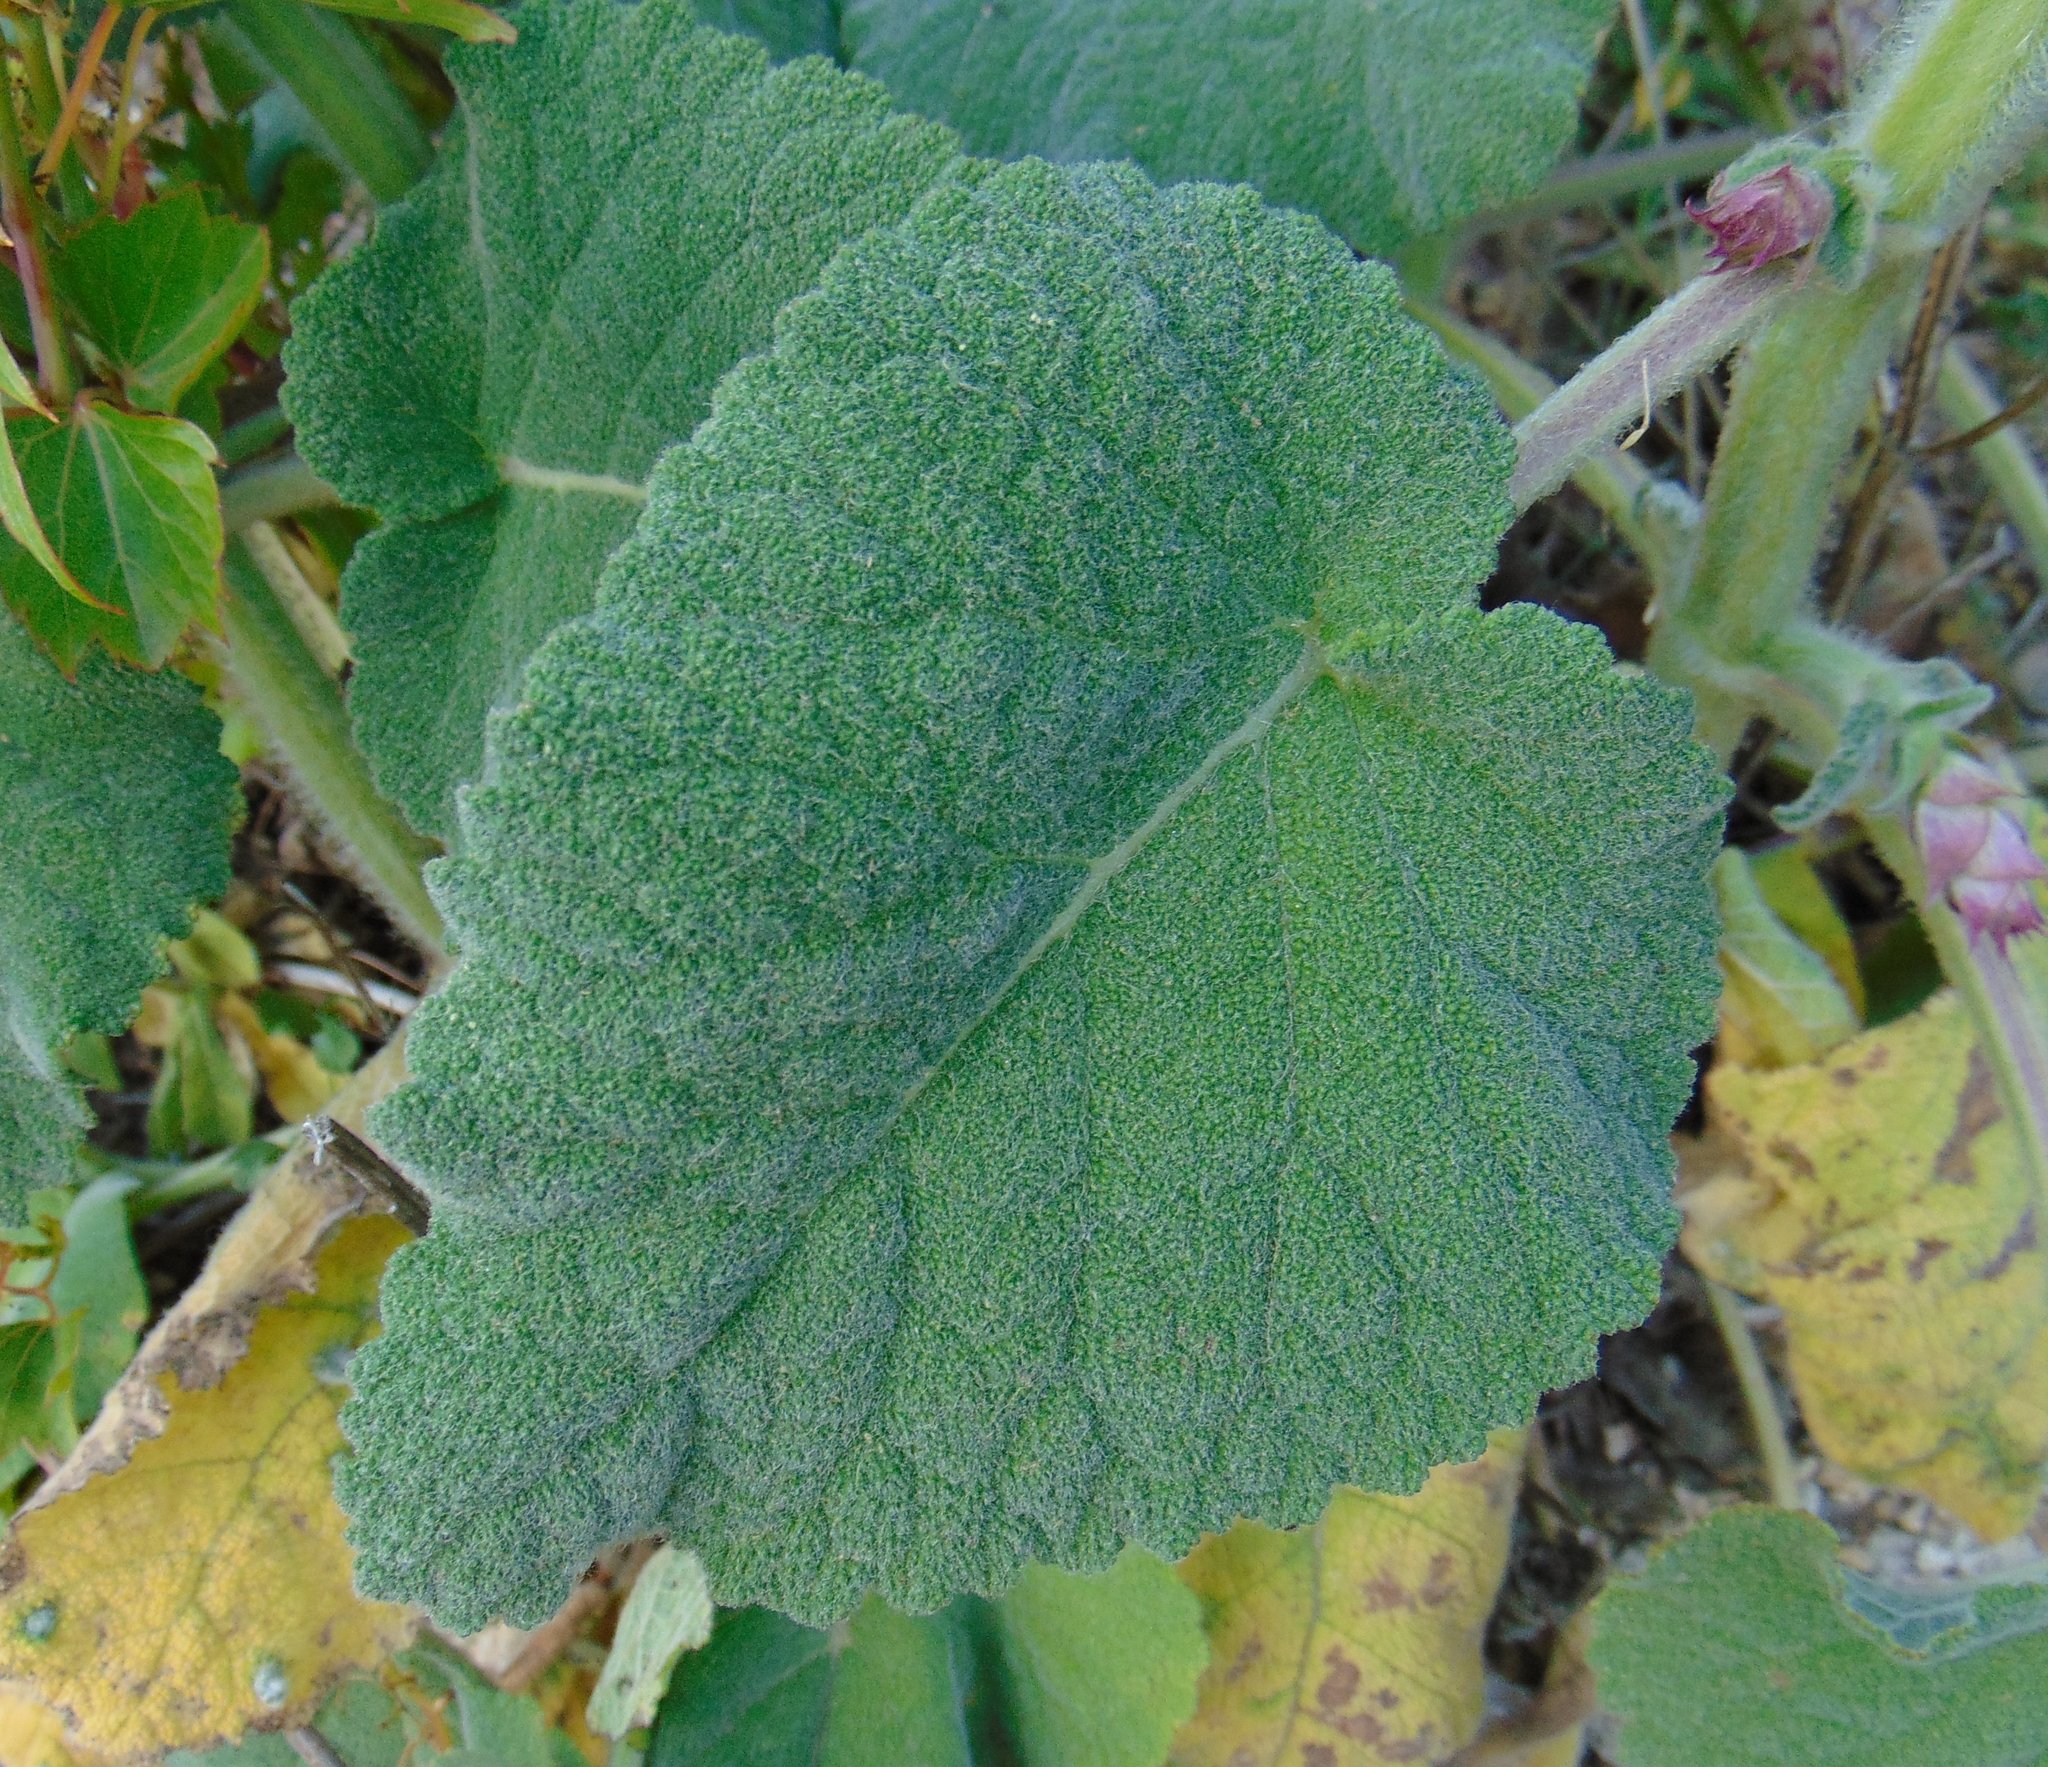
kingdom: Plantae
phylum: Tracheophyta
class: Magnoliopsida
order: Lamiales
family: Lamiaceae
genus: Salvia
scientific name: Salvia sclarea
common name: Clary
